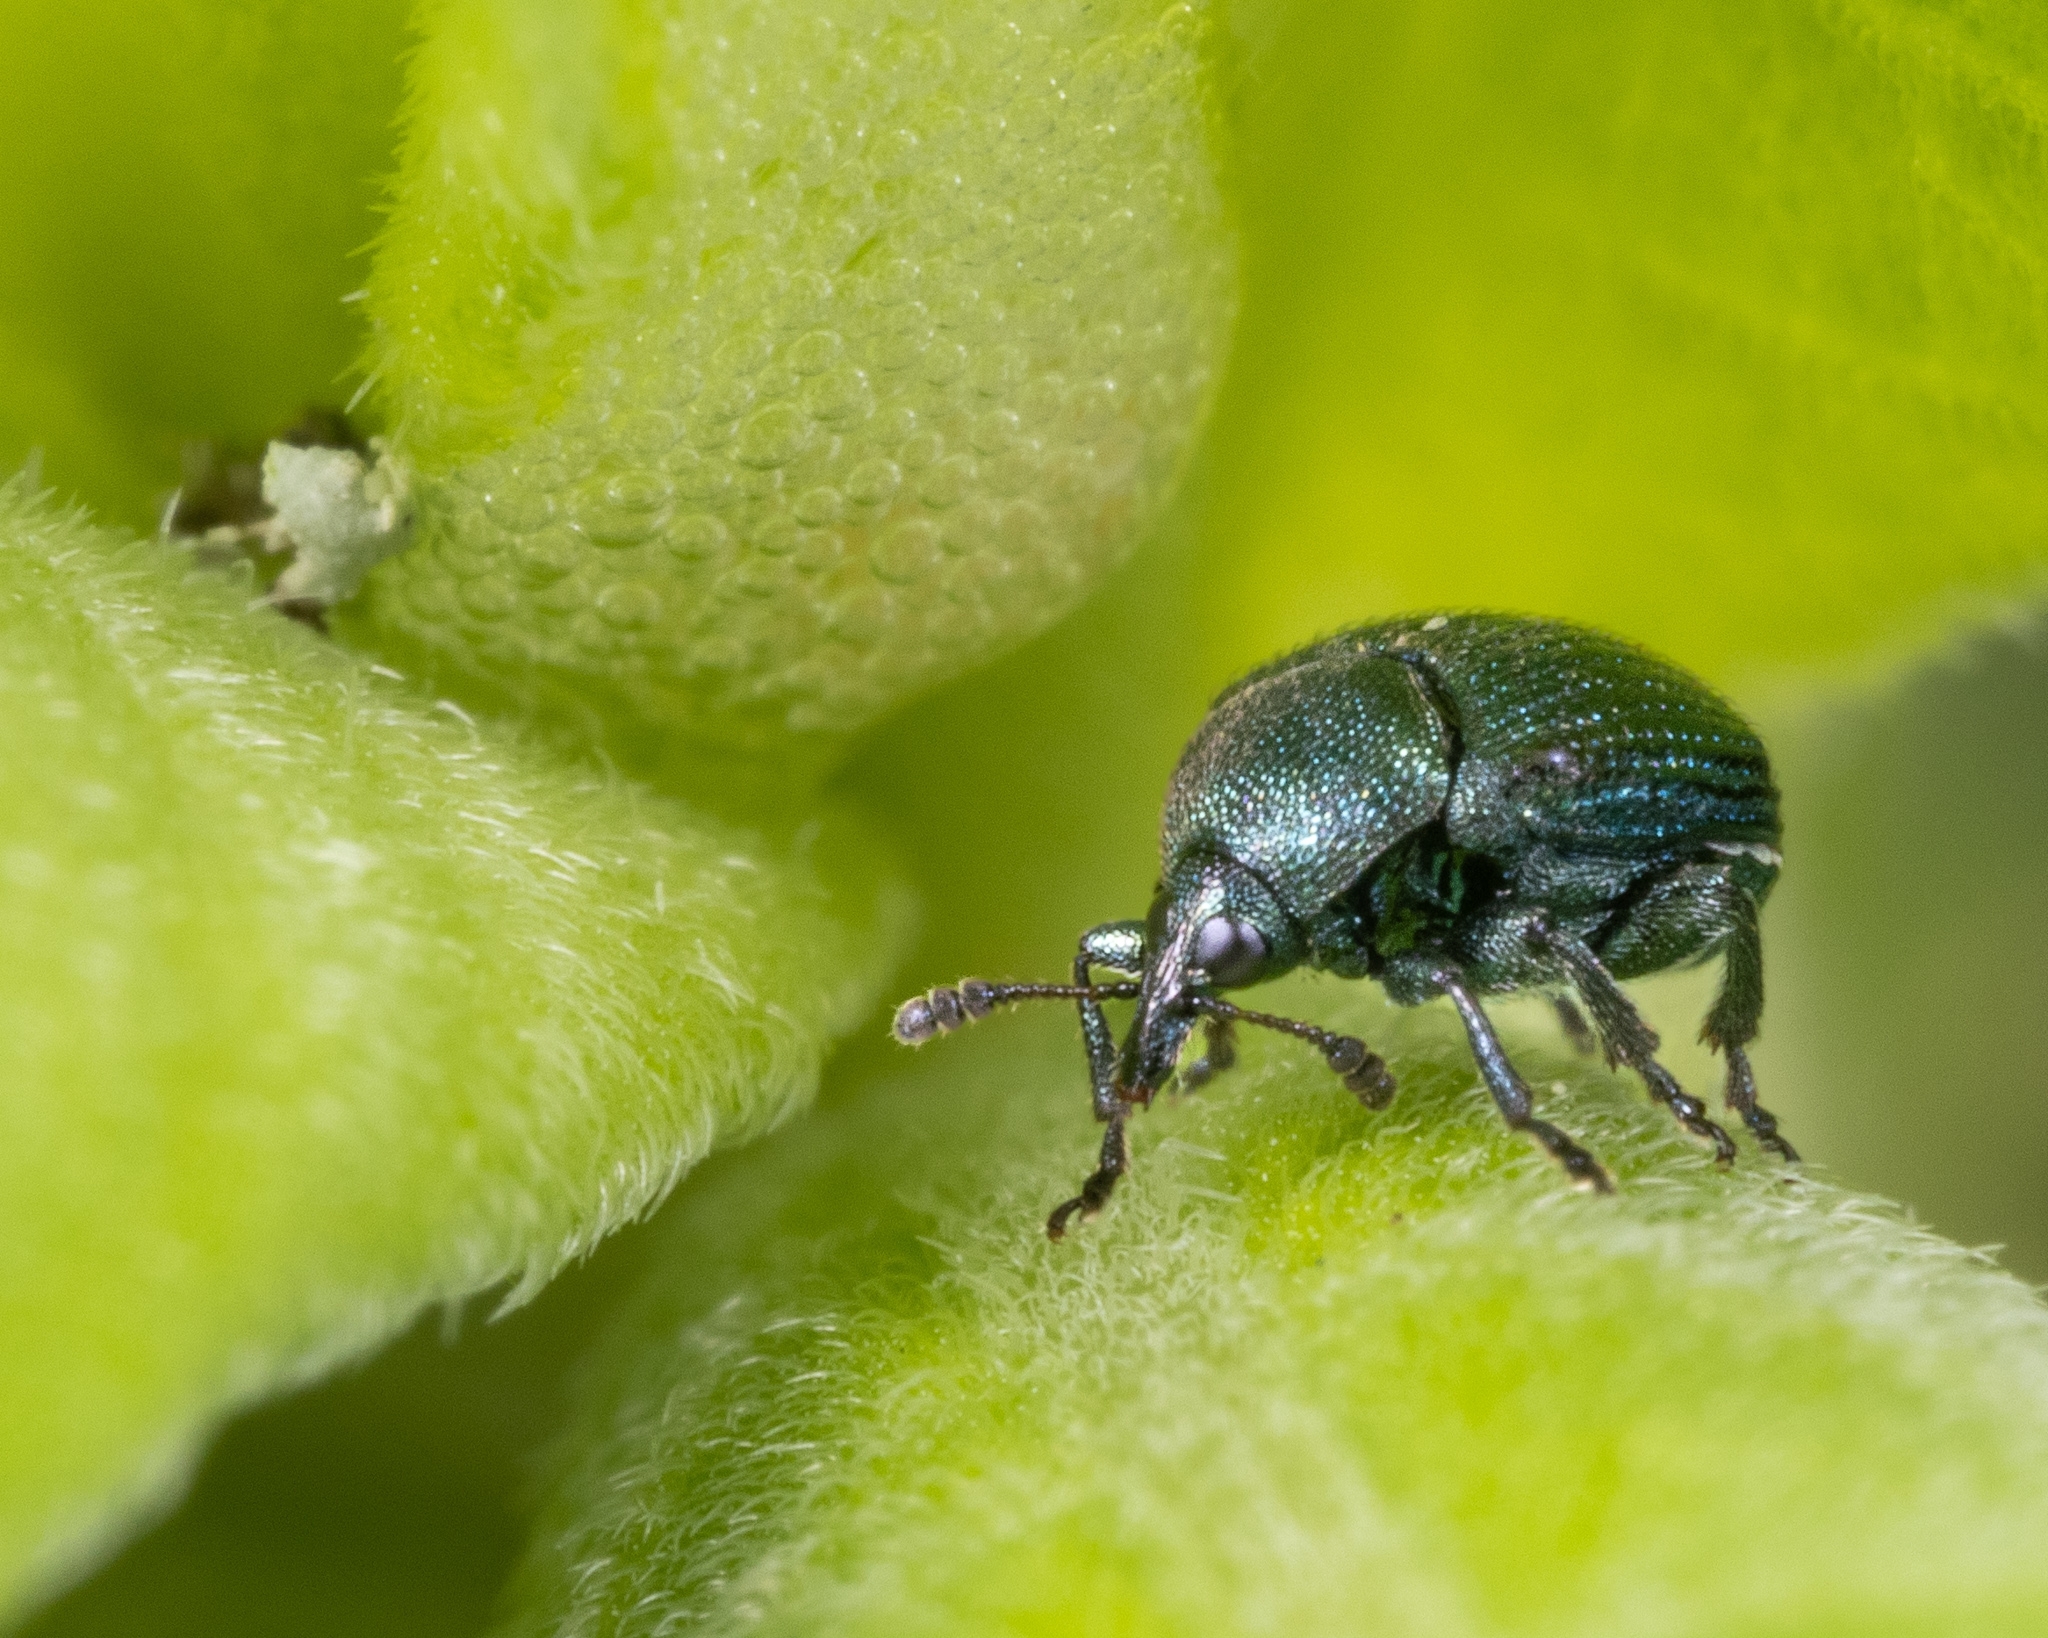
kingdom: Animalia
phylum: Arthropoda
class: Insecta
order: Coleoptera
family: Attelabidae
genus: Pterocolus
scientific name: Pterocolus ovatus
